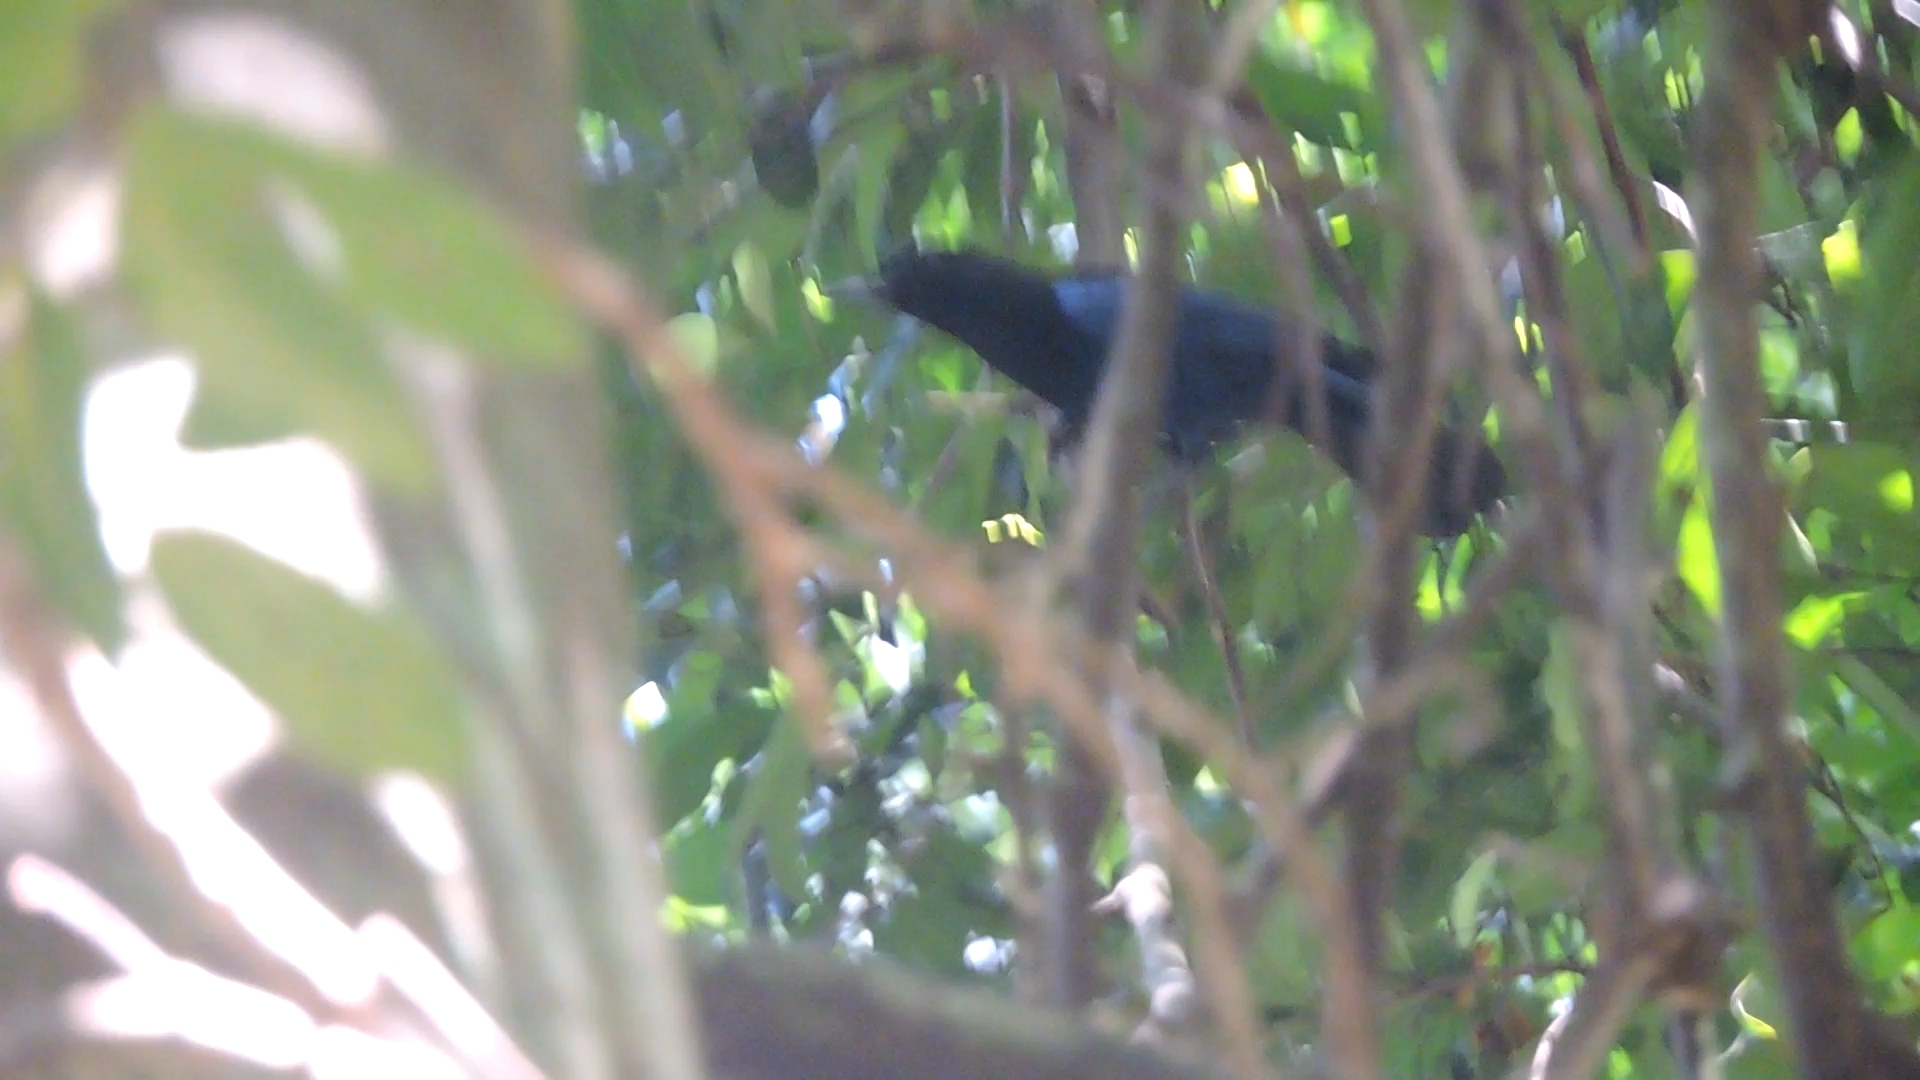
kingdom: Animalia
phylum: Chordata
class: Aves
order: Passeriformes
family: Muscicapidae
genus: Myophonus
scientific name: Myophonus horsfieldii
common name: Malabar whistling-thrush
